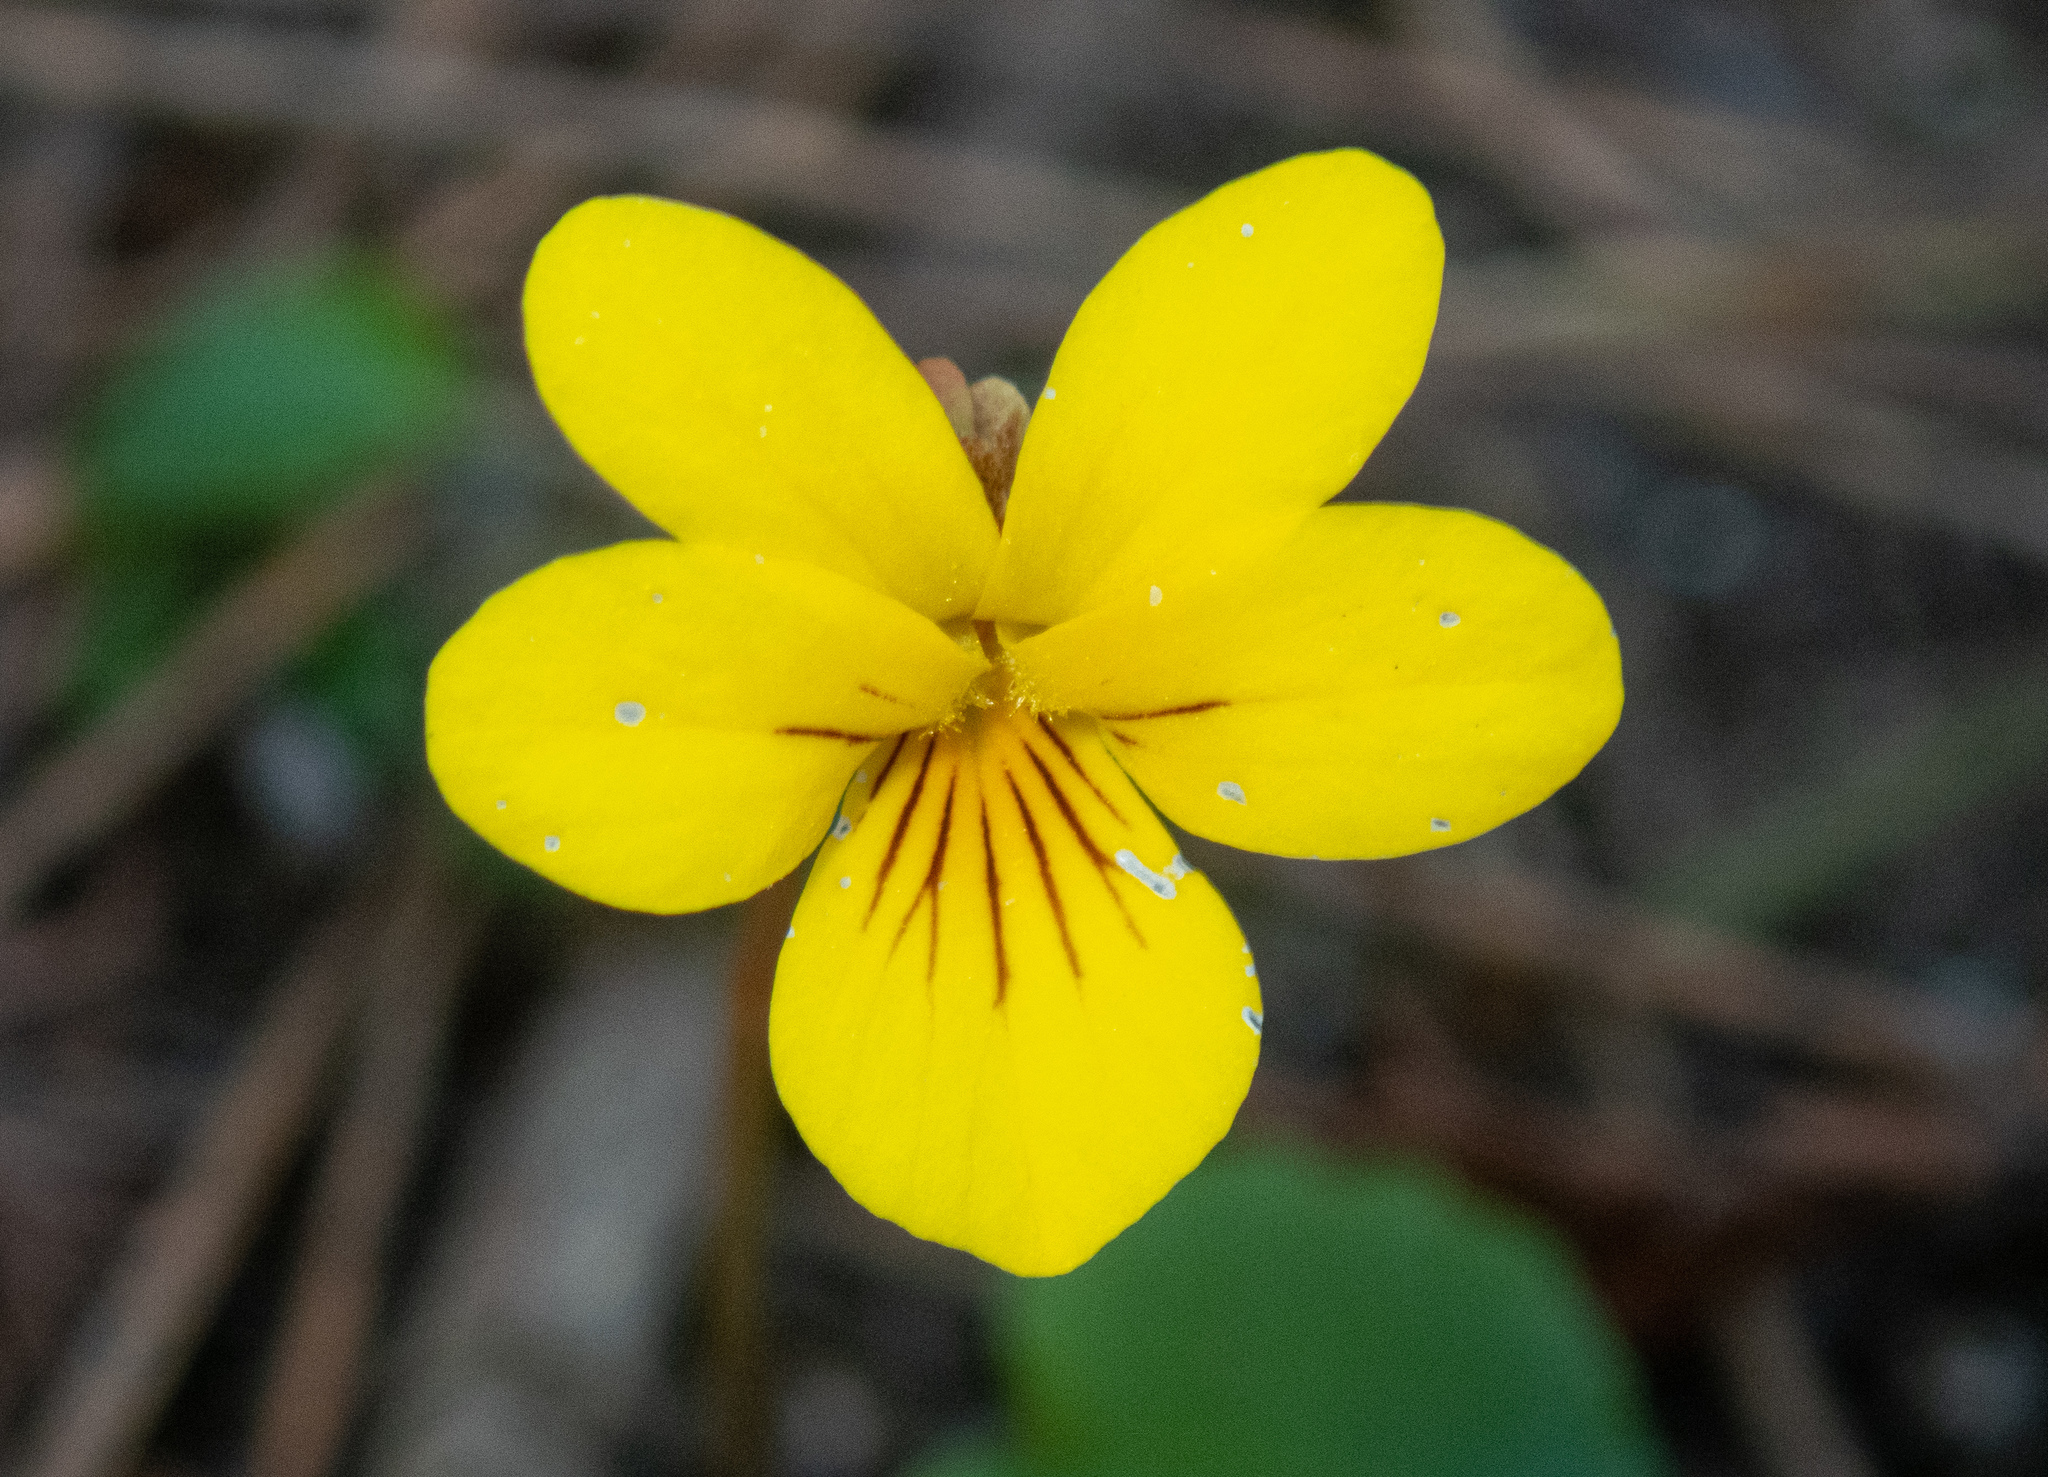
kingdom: Plantae
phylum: Tracheophyta
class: Magnoliopsida
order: Malpighiales
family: Violaceae
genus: Viola
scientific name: Viola sempervirens
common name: Evergreen violet
